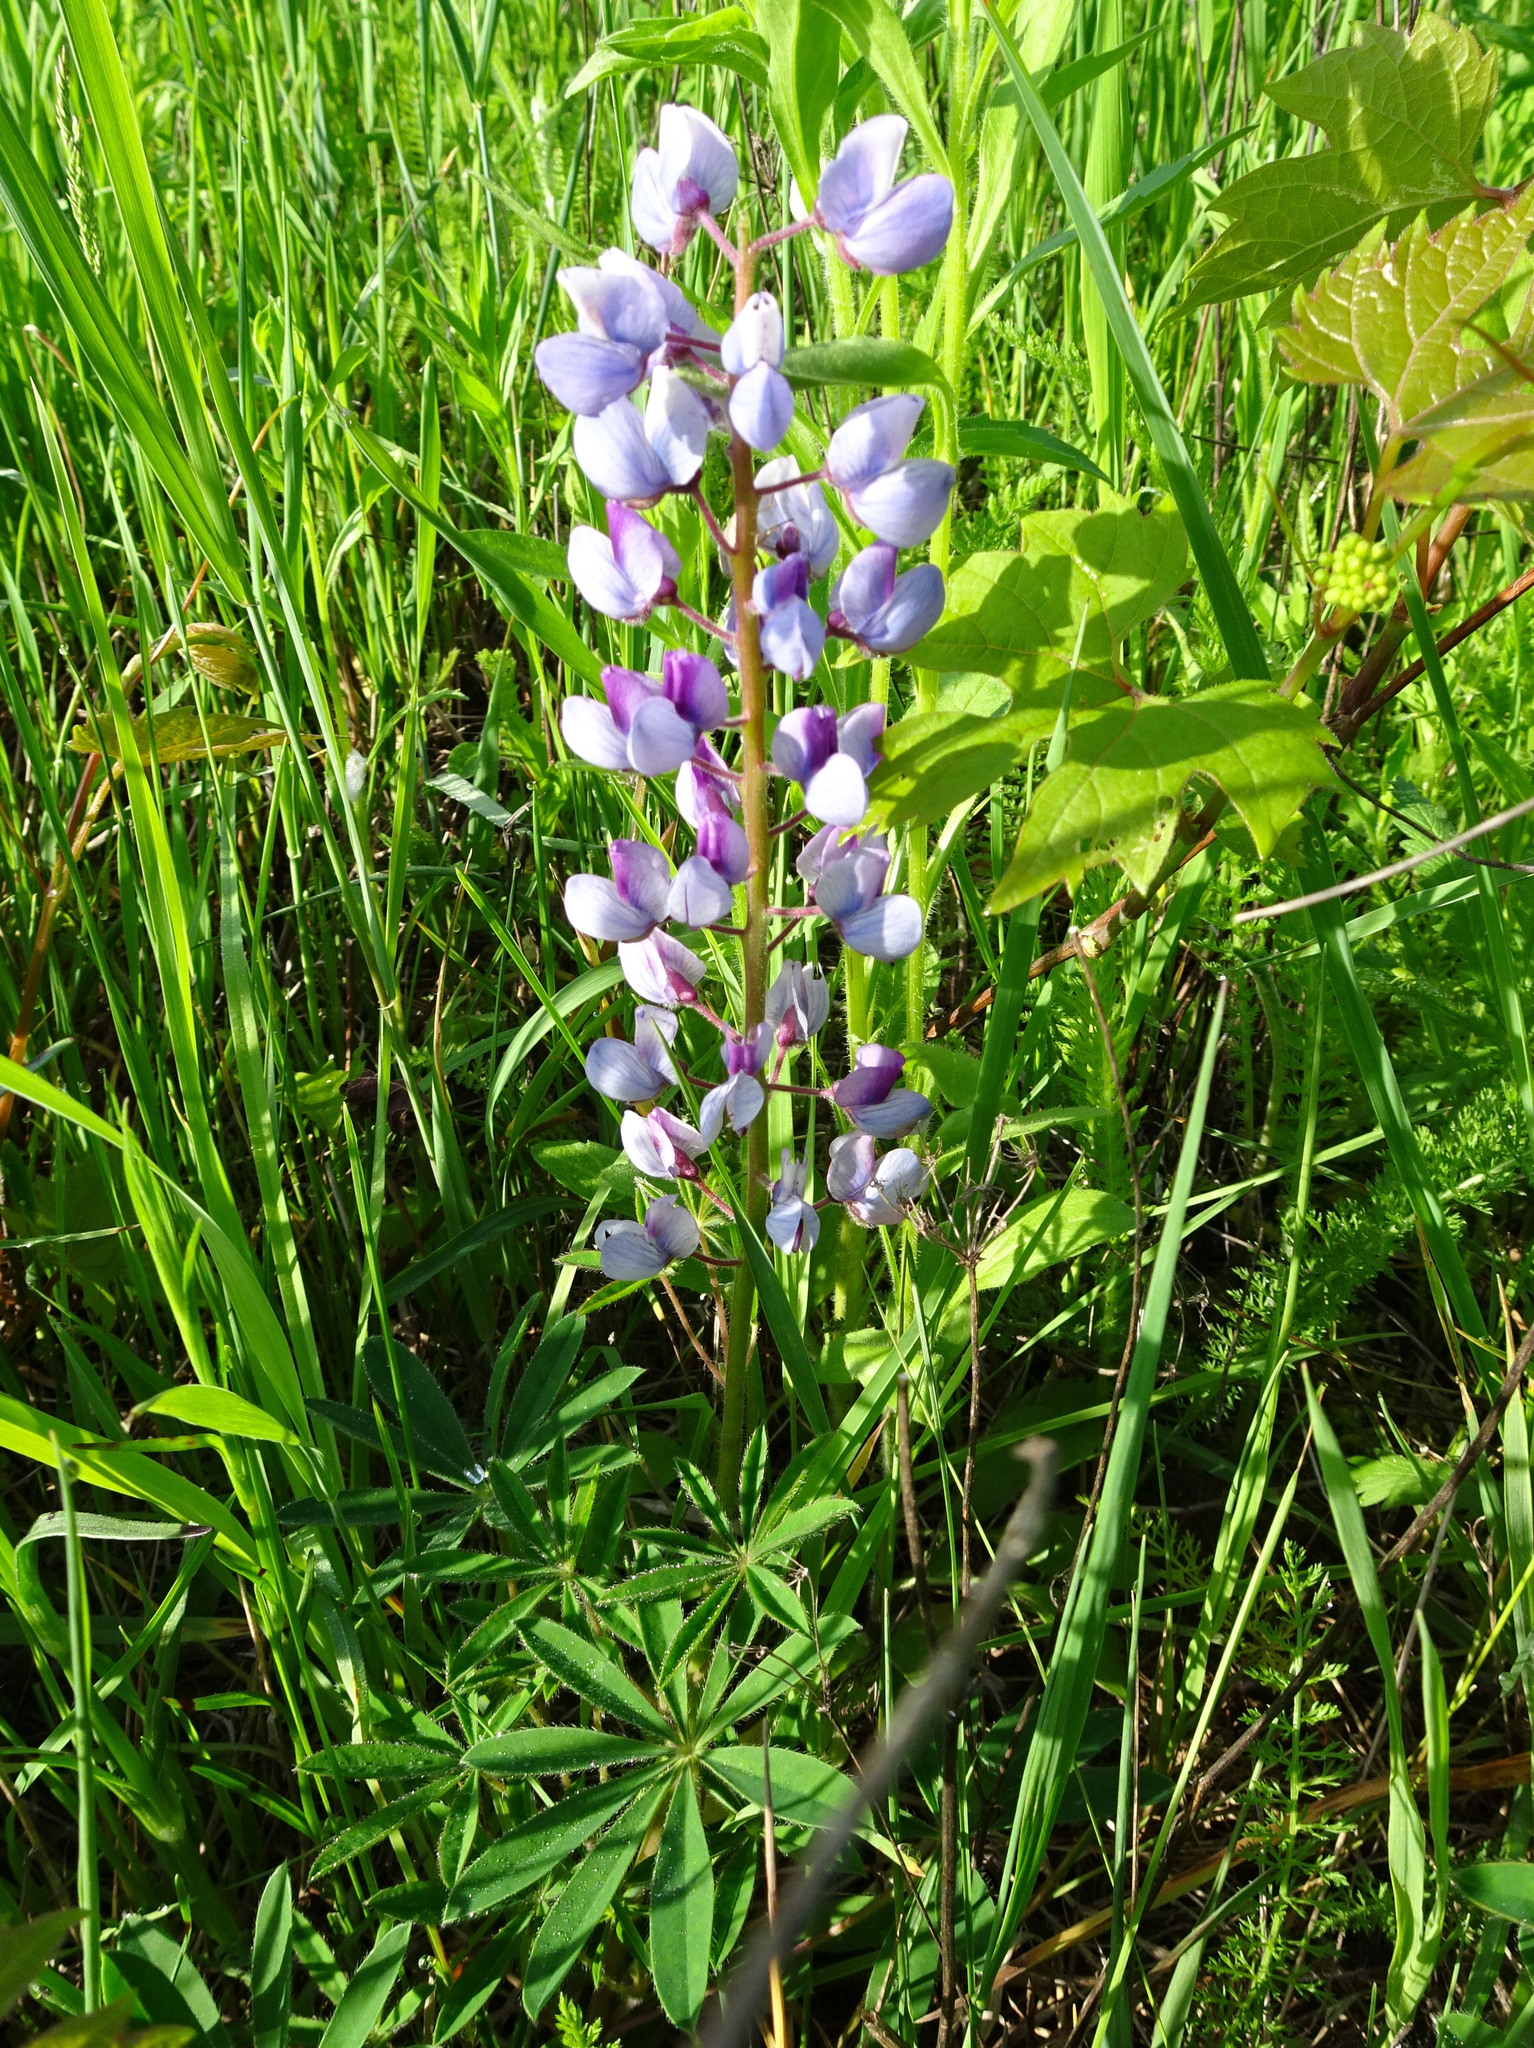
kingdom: Plantae
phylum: Tracheophyta
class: Magnoliopsida
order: Fabales
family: Fabaceae
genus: Lupinus
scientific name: Lupinus perennis
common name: Sundial lupine
